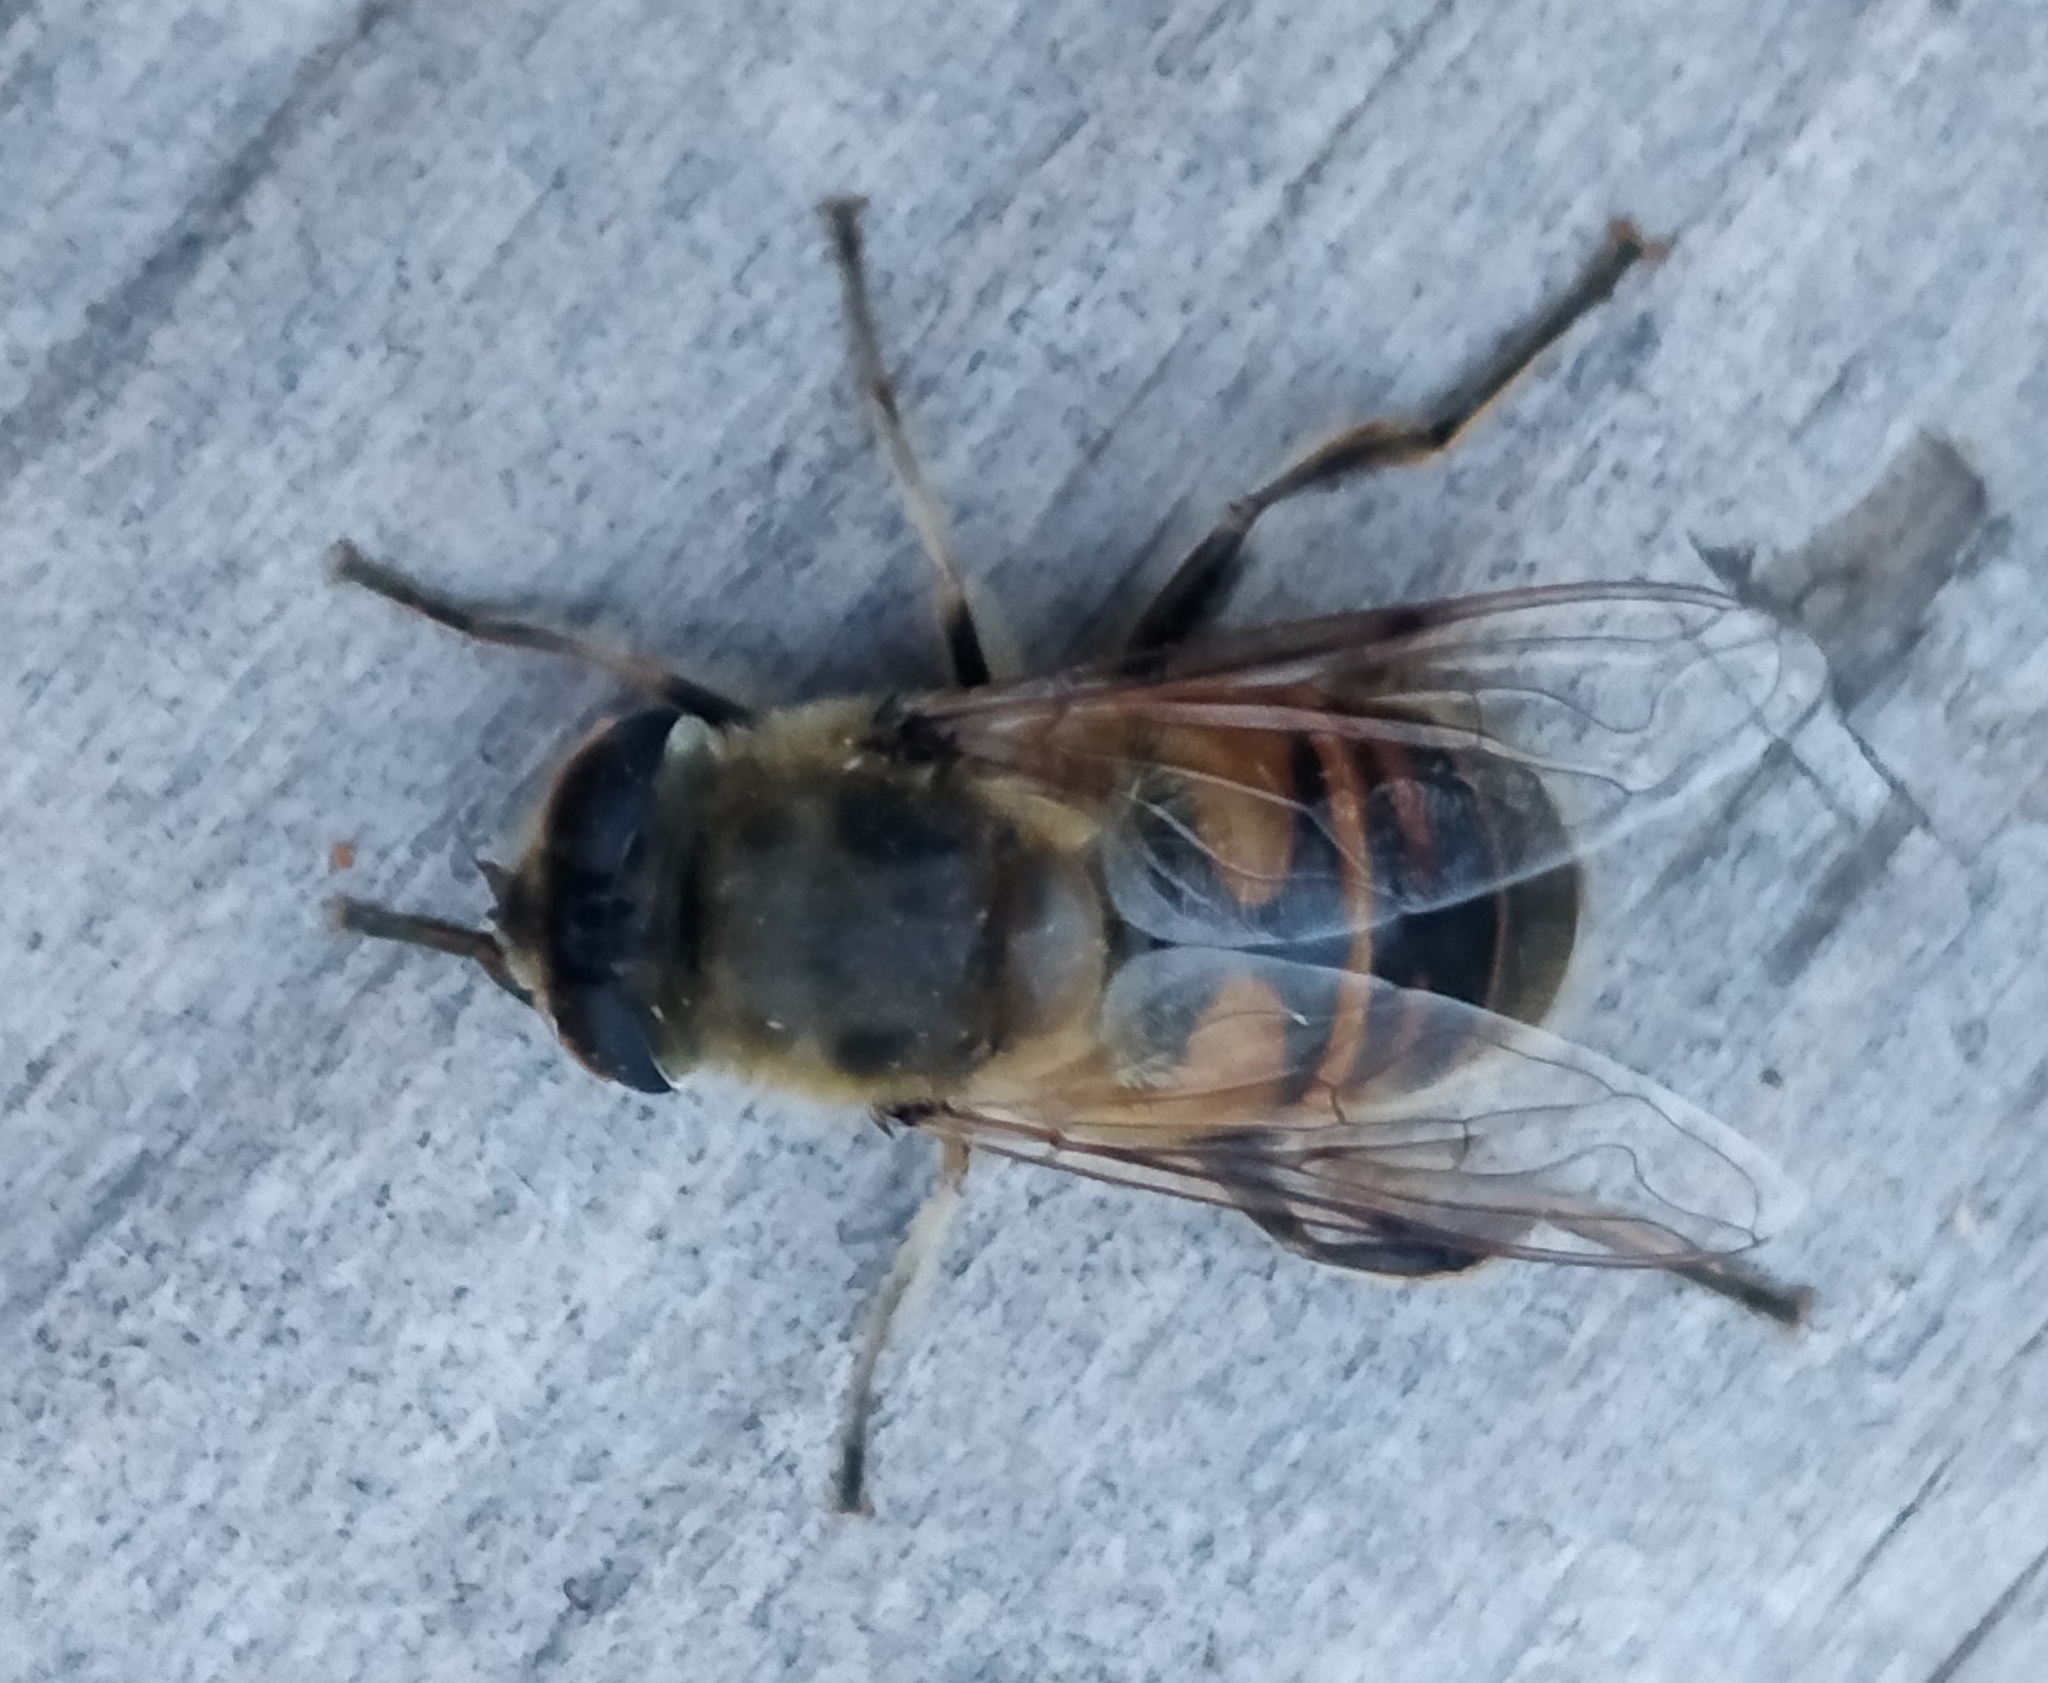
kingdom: Animalia
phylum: Arthropoda
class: Insecta
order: Diptera
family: Syrphidae
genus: Eristalis
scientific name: Eristalis tenax
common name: Drone fly
